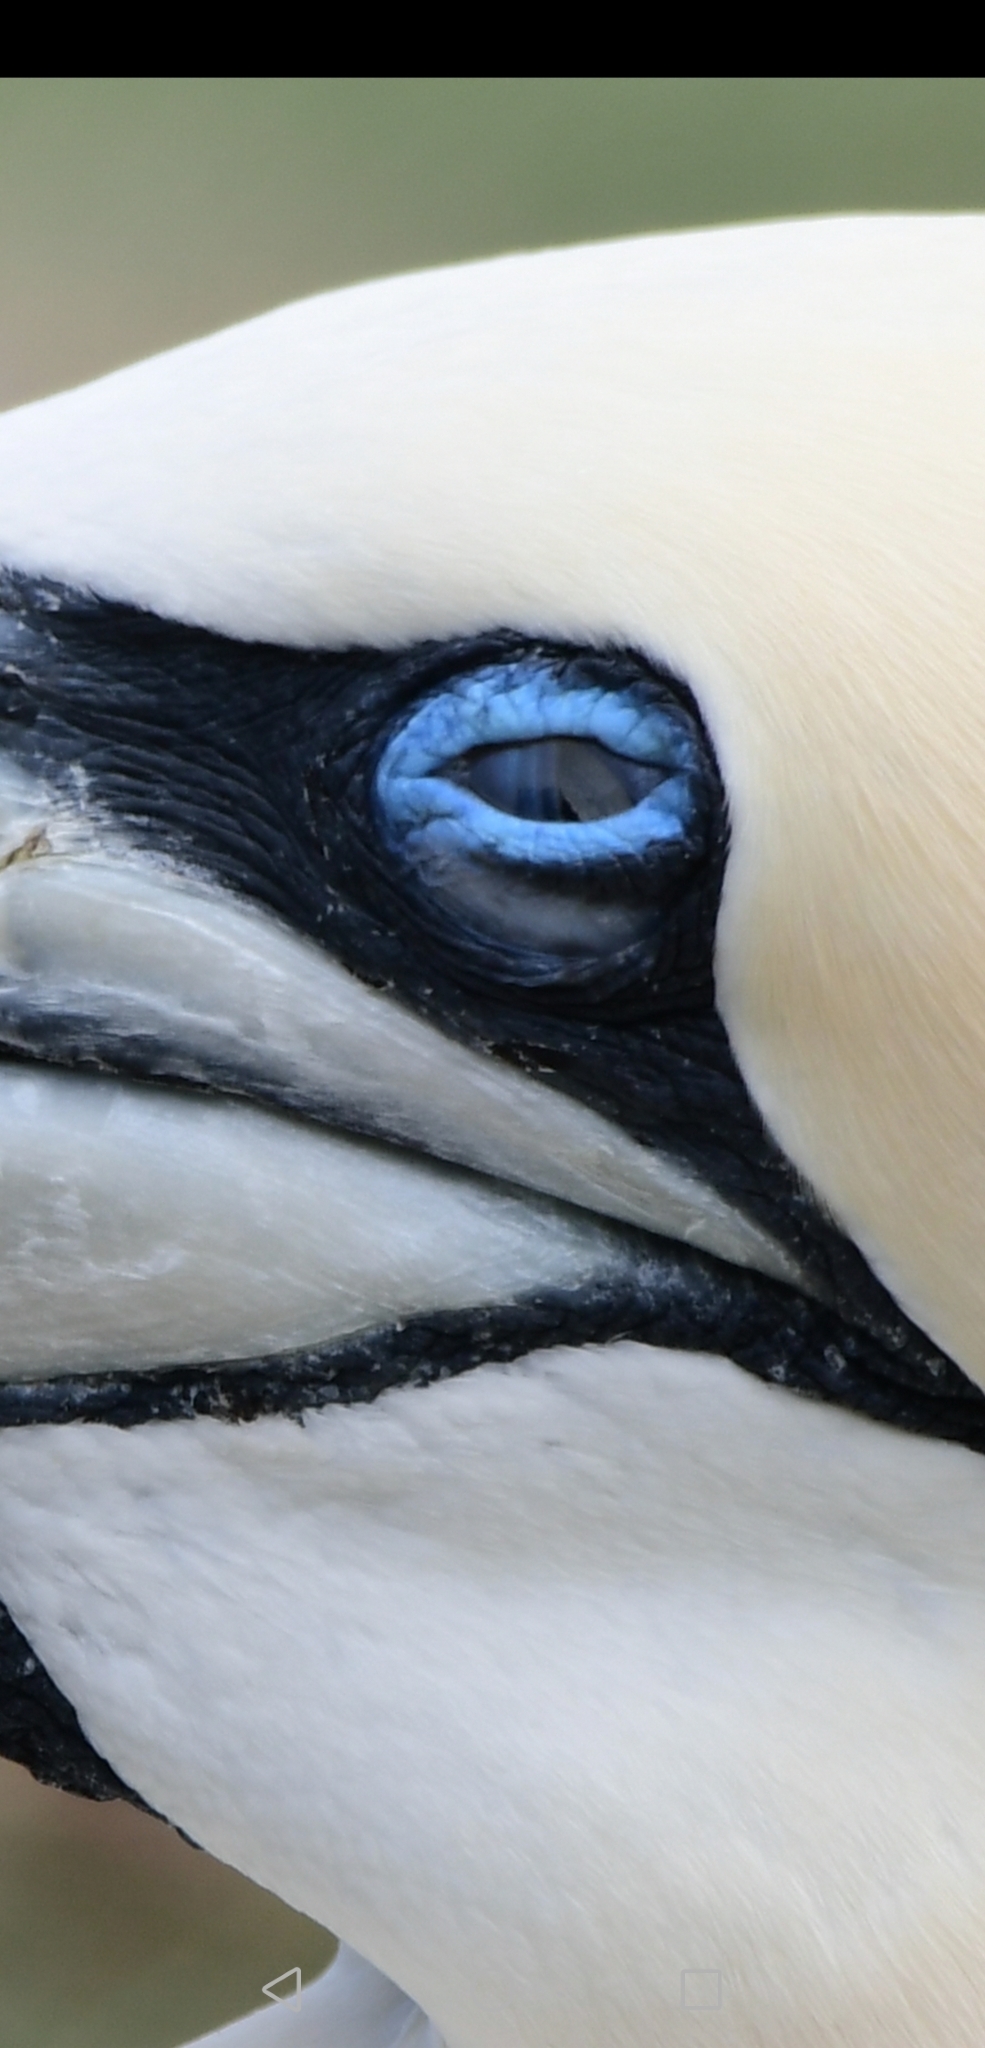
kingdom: Animalia
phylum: Chordata
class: Aves
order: Suliformes
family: Sulidae
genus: Morus
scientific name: Morus bassanus
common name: Northern gannet
